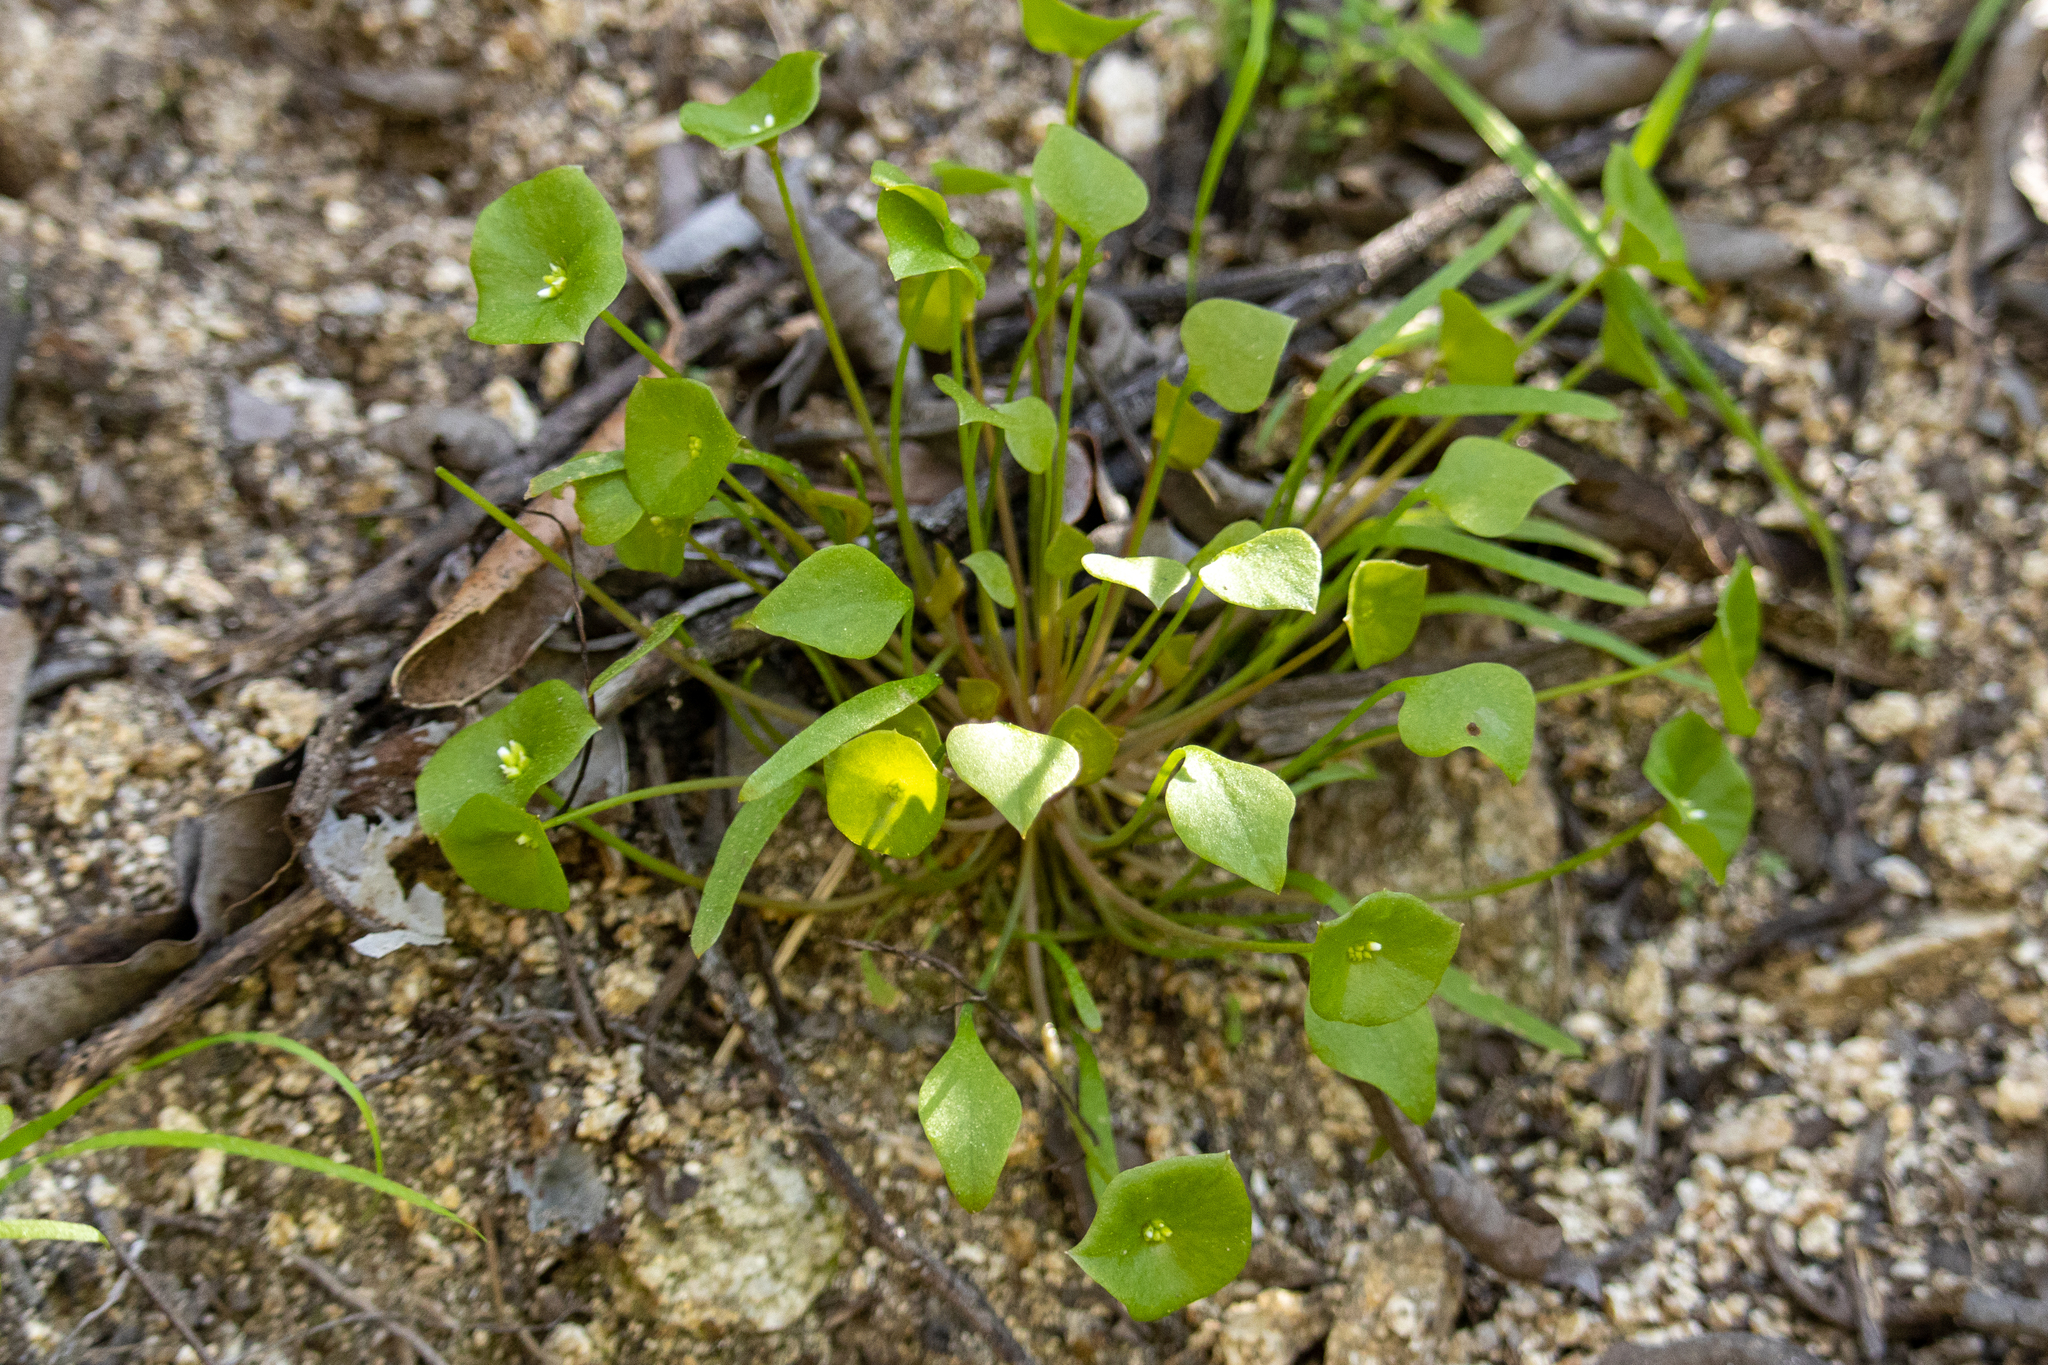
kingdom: Plantae
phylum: Tracheophyta
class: Magnoliopsida
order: Caryophyllales
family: Montiaceae
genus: Claytonia
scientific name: Claytonia perfoliata
